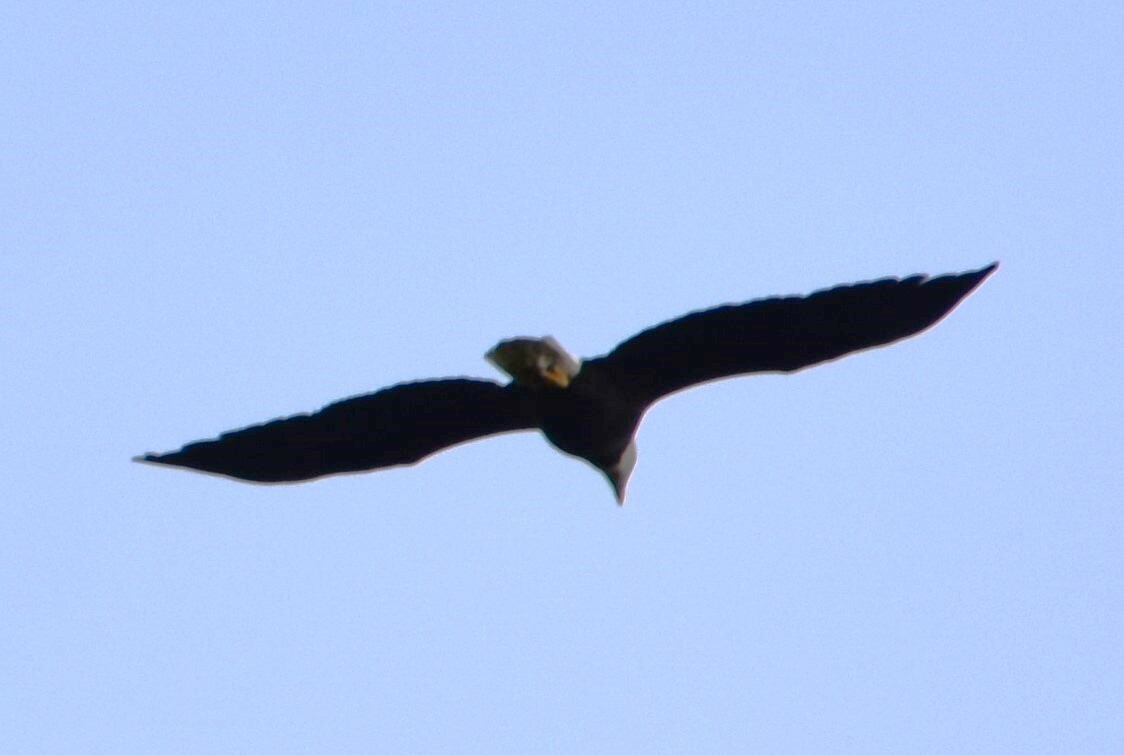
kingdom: Animalia
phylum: Chordata
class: Aves
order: Accipitriformes
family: Accipitridae
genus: Haliaeetus
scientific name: Haliaeetus leucocephalus
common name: Bald eagle
